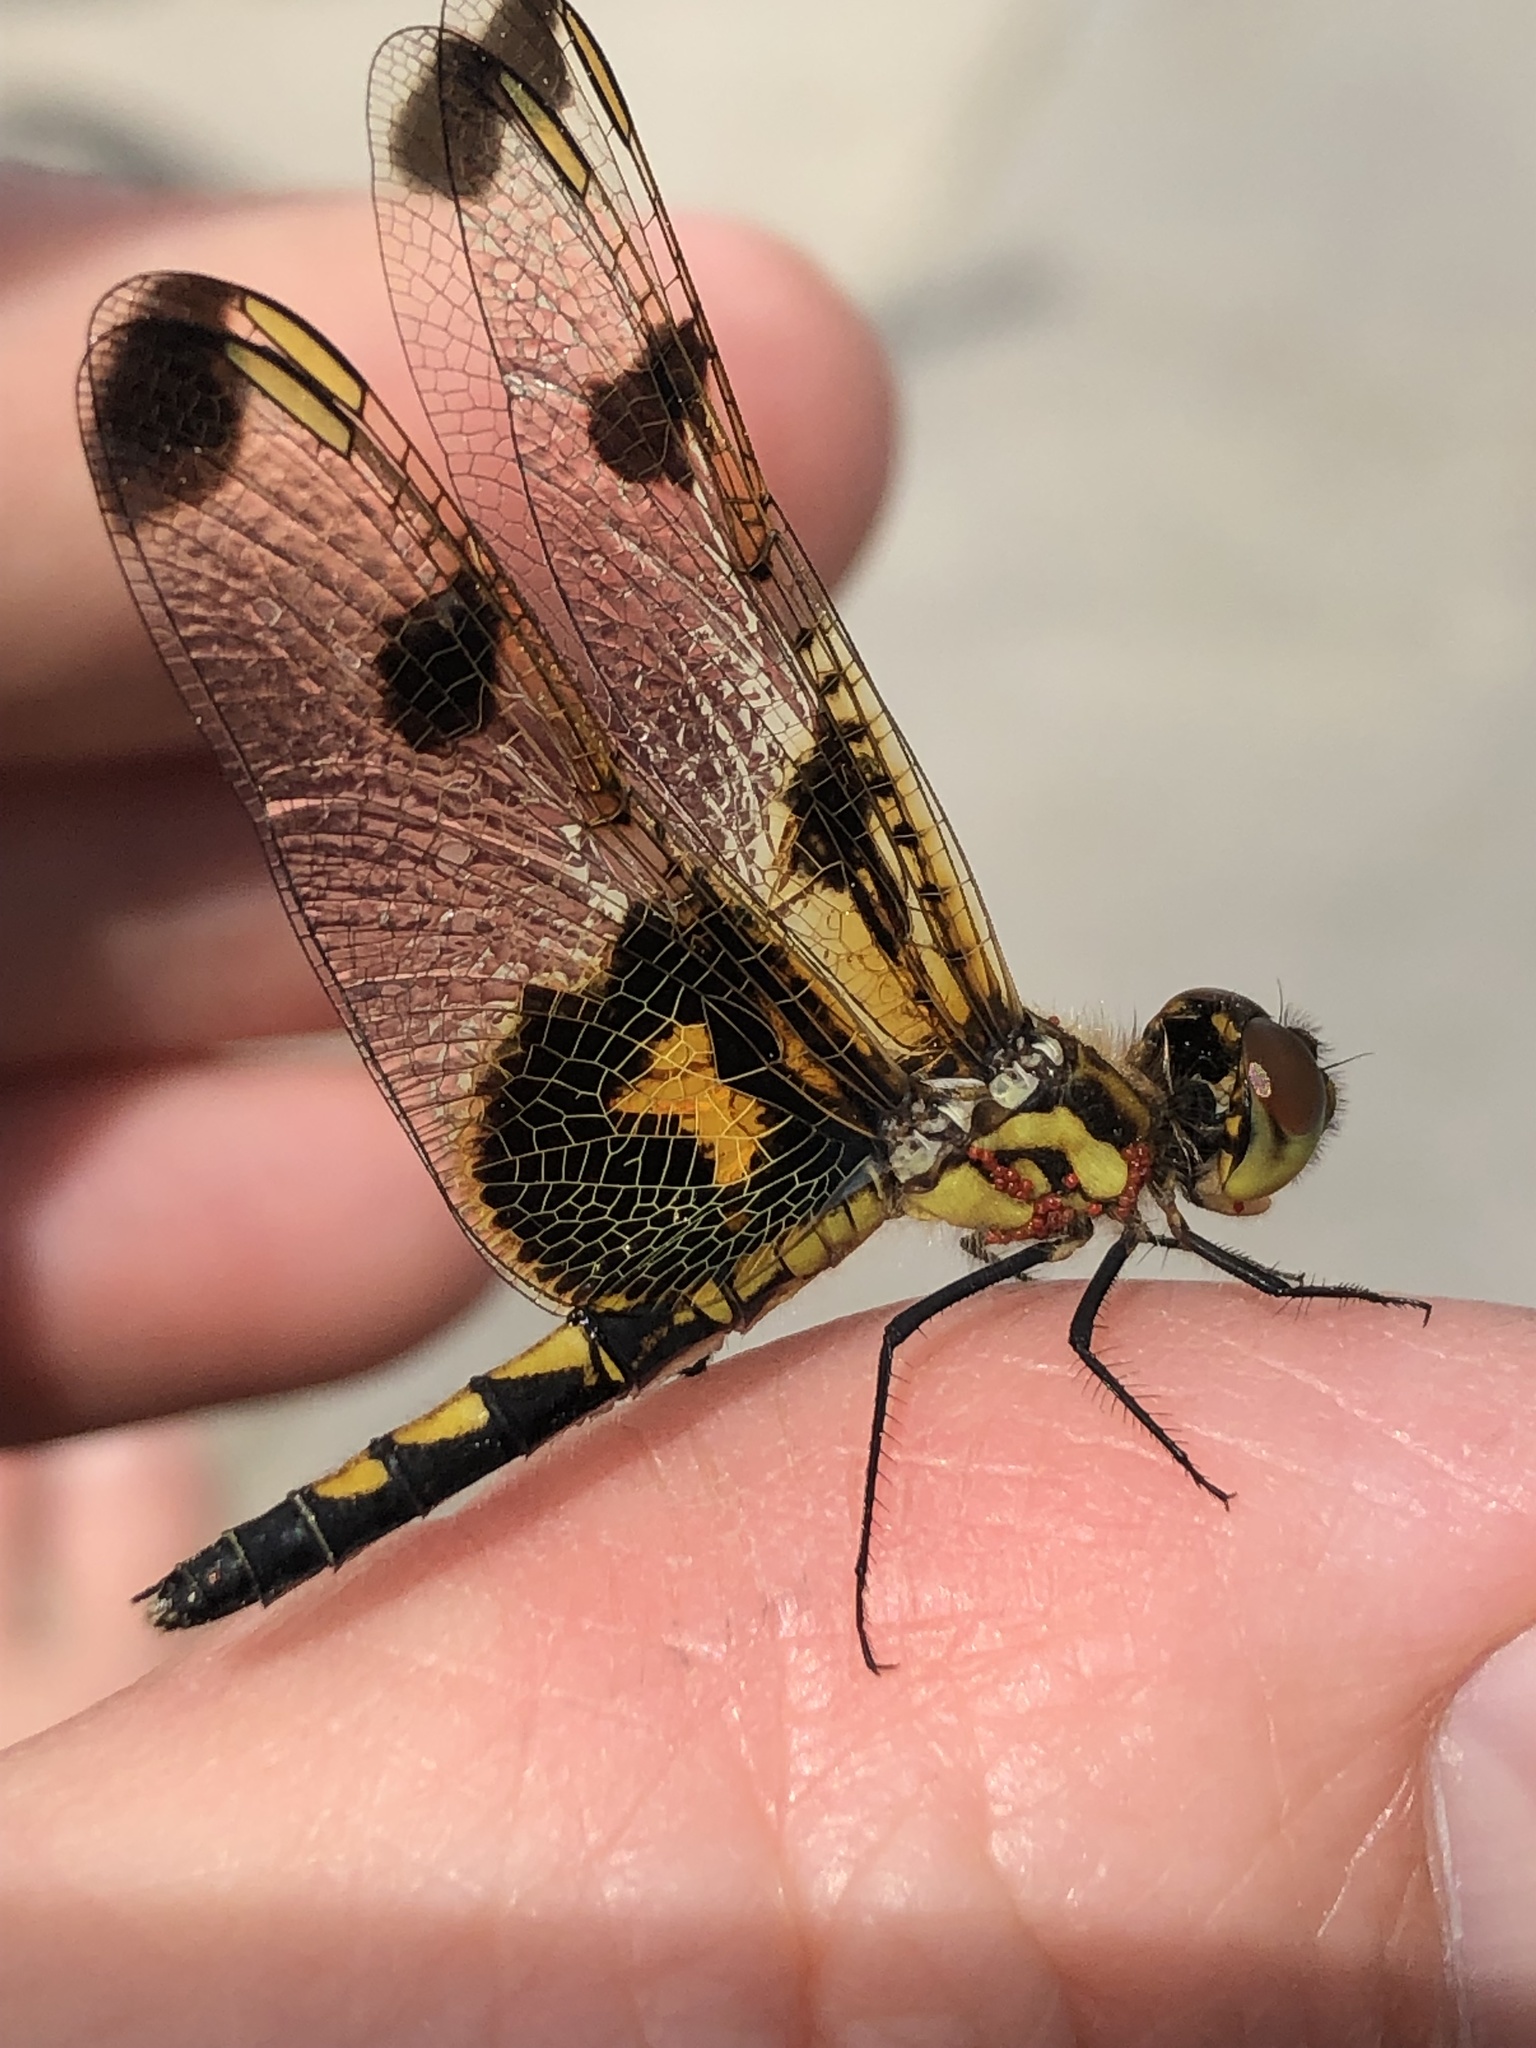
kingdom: Animalia
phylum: Arthropoda
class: Insecta
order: Odonata
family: Libellulidae
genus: Celithemis
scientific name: Celithemis elisa
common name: Calico pennant
